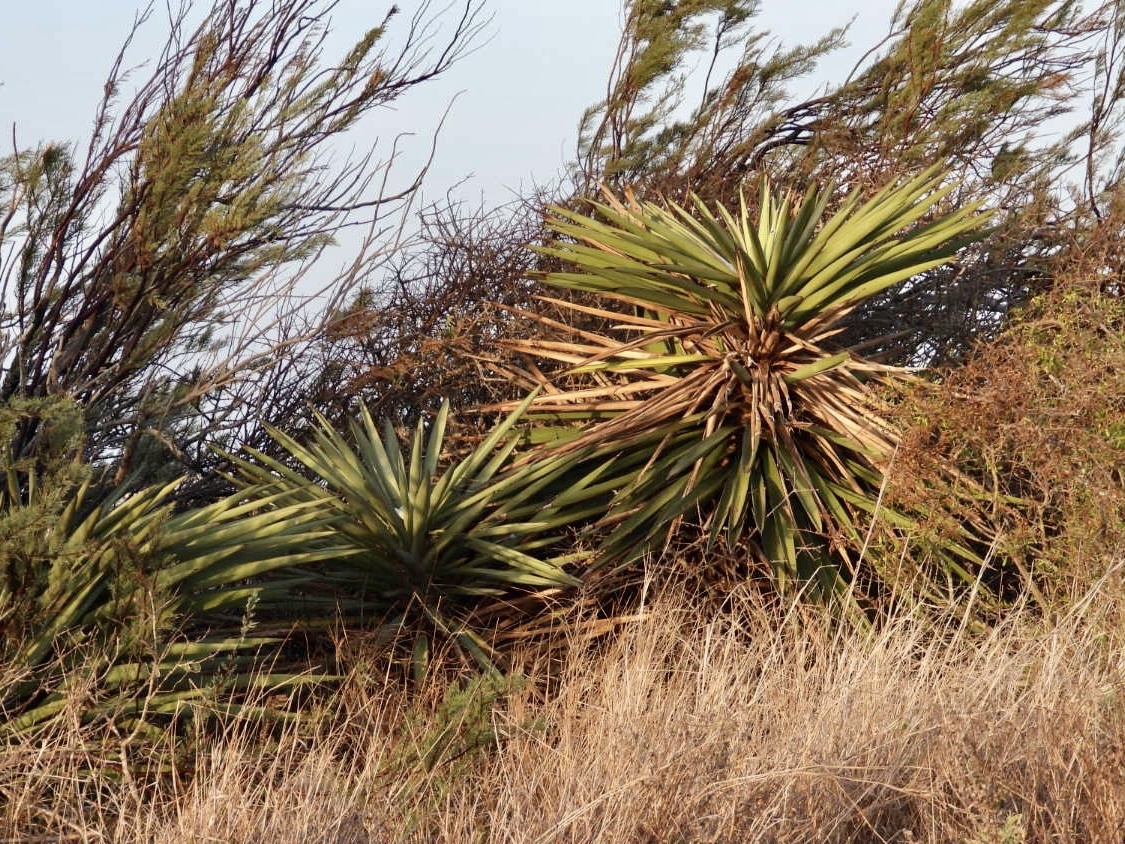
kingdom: Plantae
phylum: Tracheophyta
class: Liliopsida
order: Asparagales
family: Asparagaceae
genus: Yucca
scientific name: Yucca treculiana
